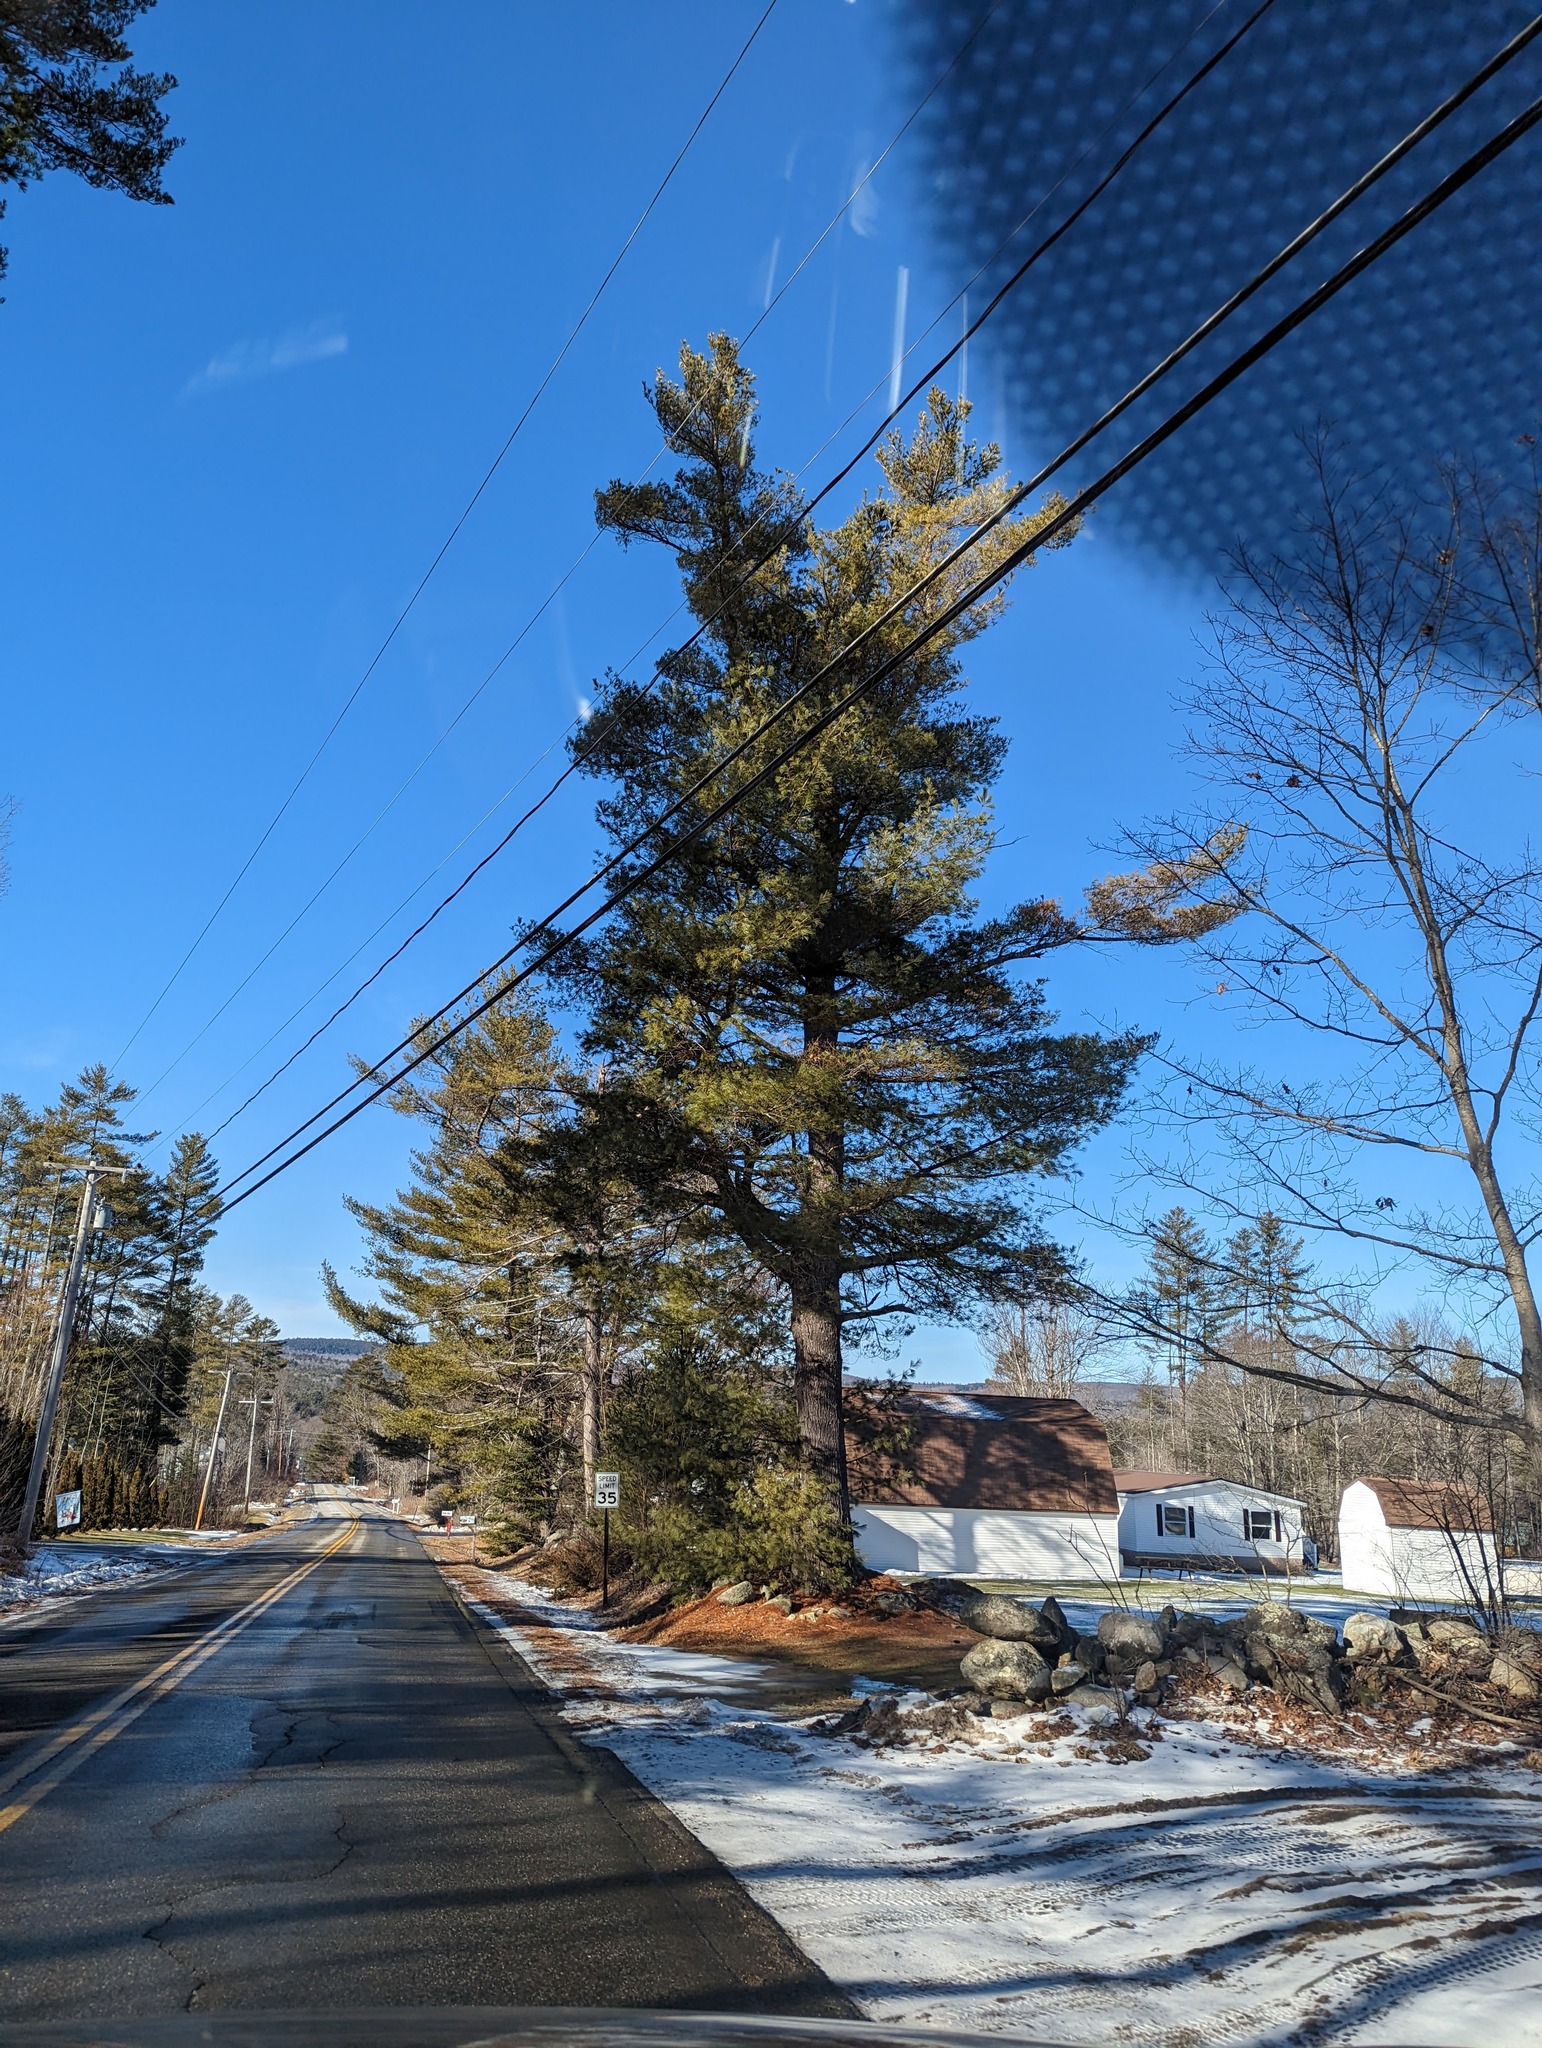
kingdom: Plantae
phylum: Tracheophyta
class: Pinopsida
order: Pinales
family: Pinaceae
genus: Pinus
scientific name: Pinus strobus
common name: Weymouth pine
